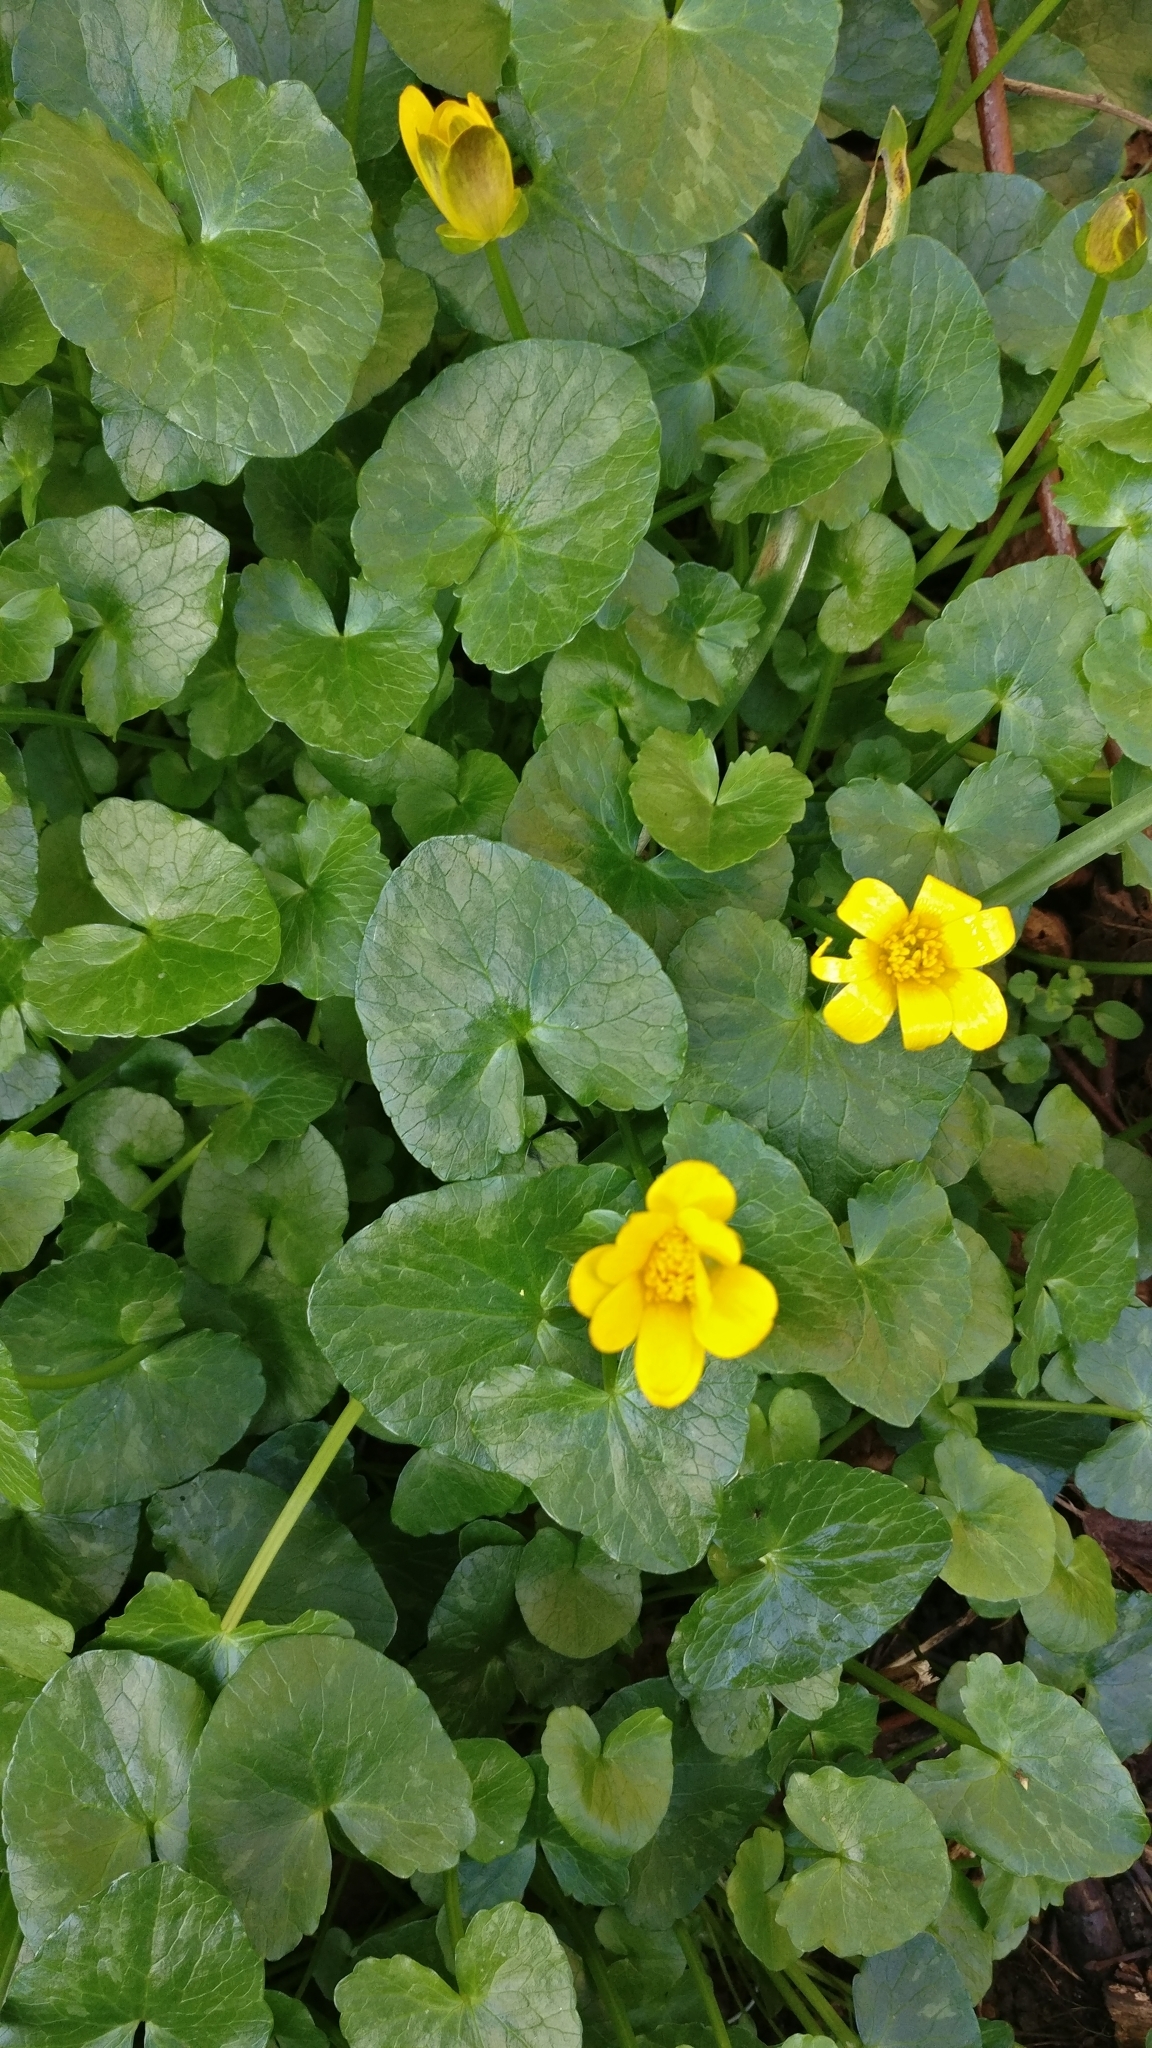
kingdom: Plantae
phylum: Tracheophyta
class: Magnoliopsida
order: Ranunculales
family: Ranunculaceae
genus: Ficaria
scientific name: Ficaria verna
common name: Lesser celandine
